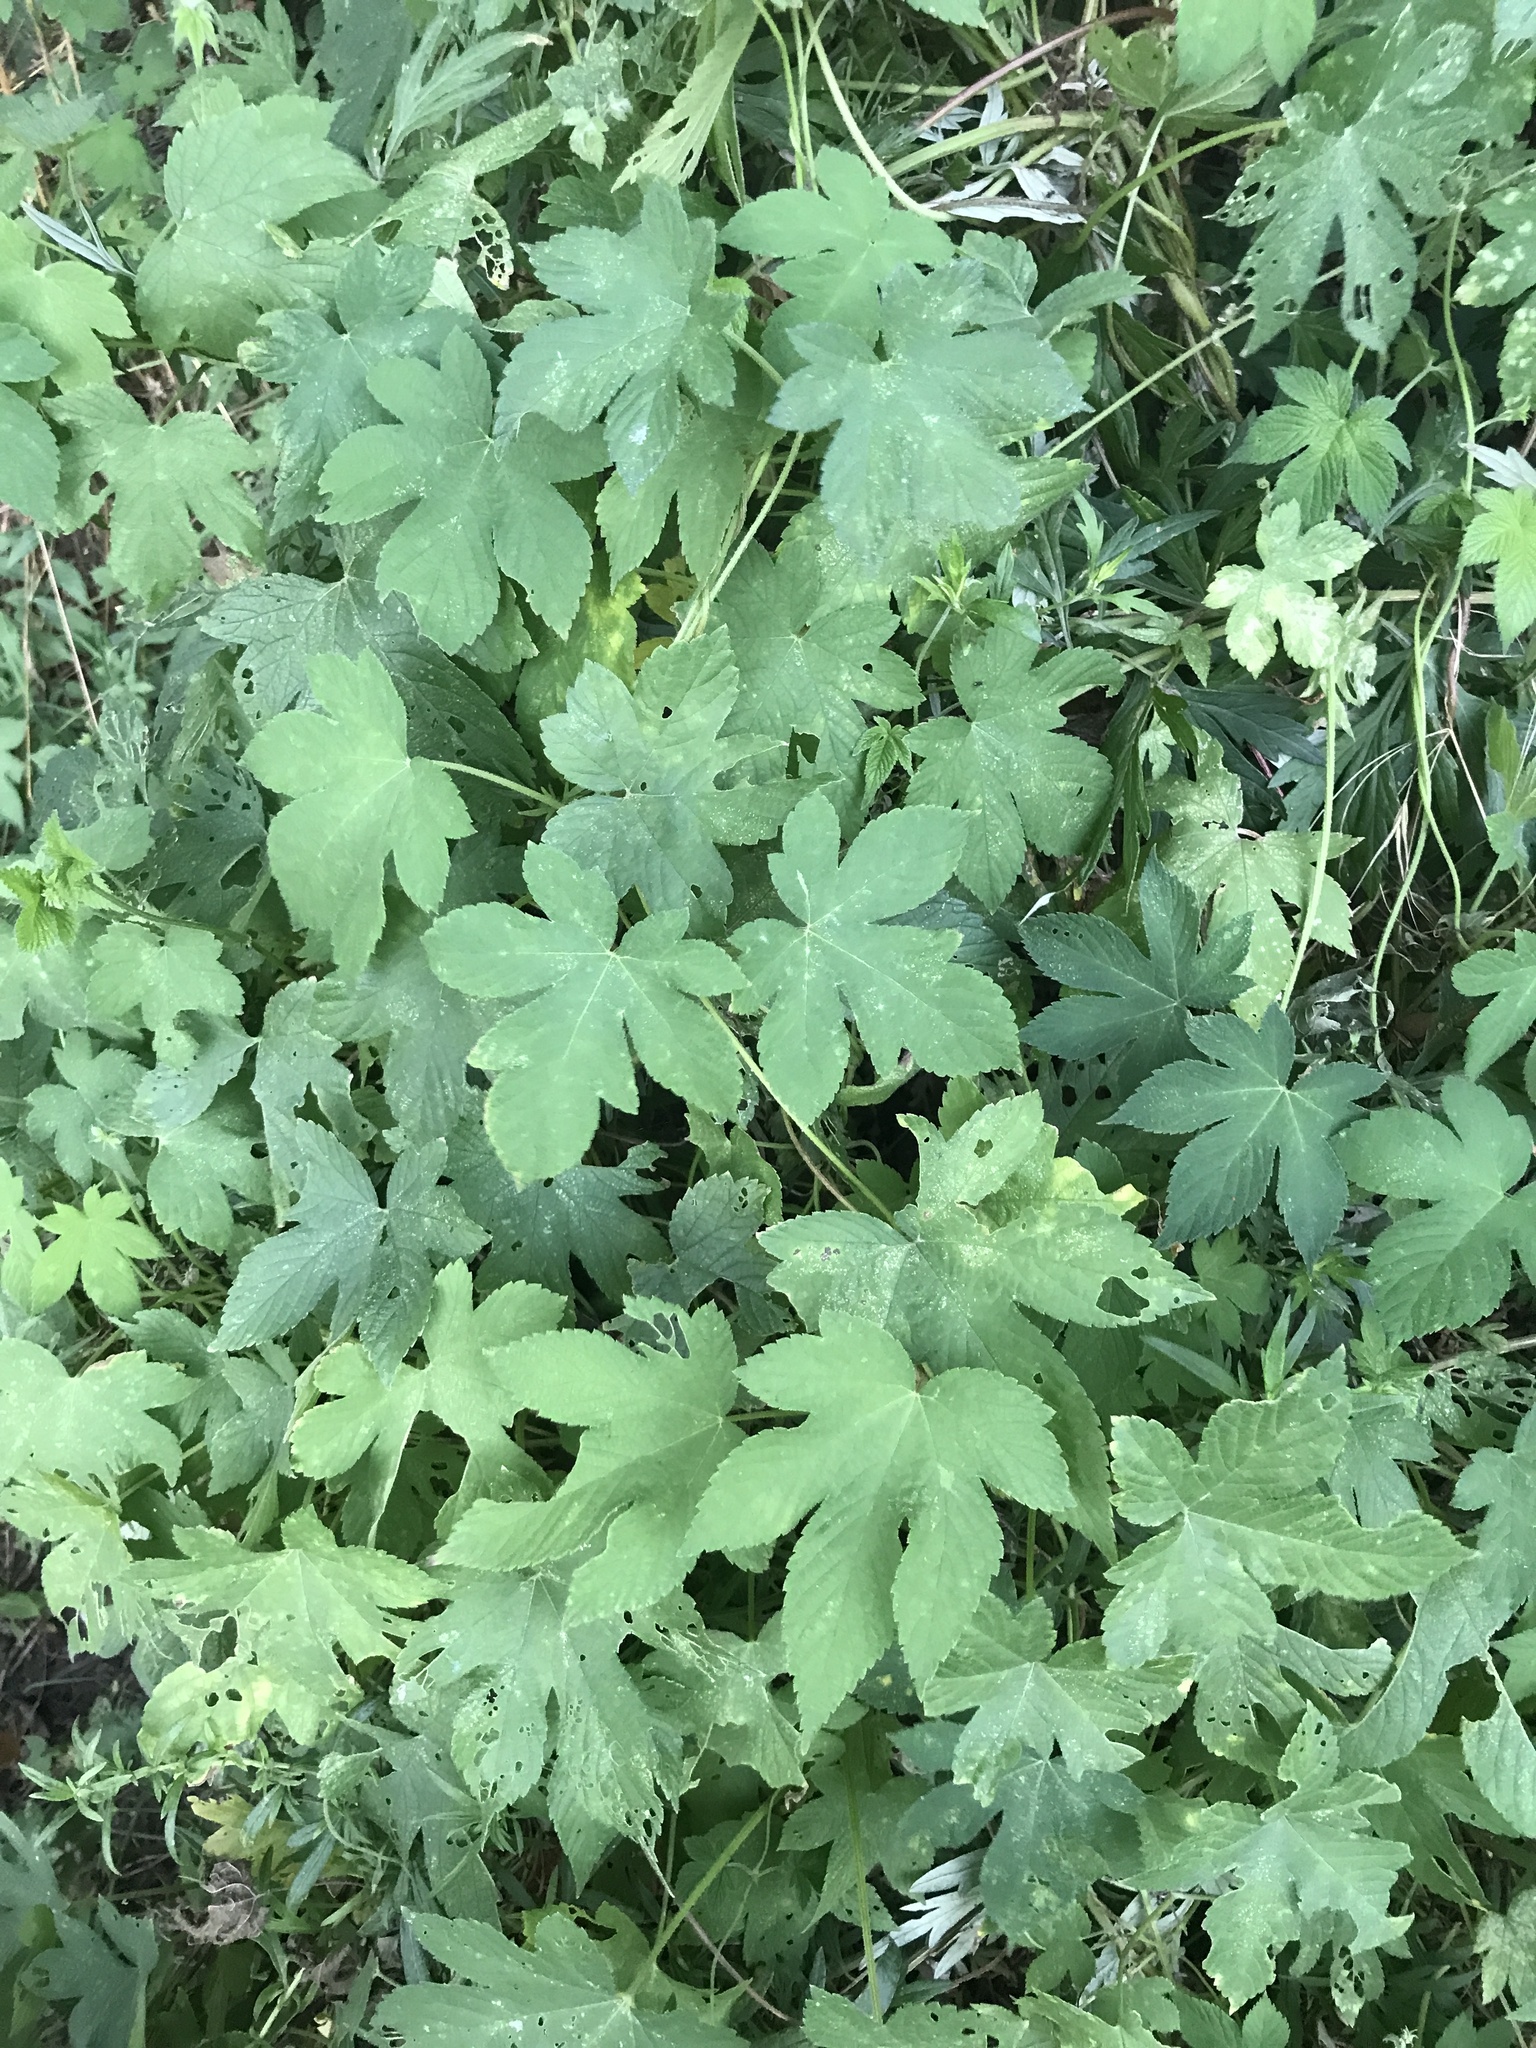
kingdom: Plantae
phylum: Tracheophyta
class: Magnoliopsida
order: Rosales
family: Cannabaceae
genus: Humulus
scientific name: Humulus scandens
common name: Japanese hop
